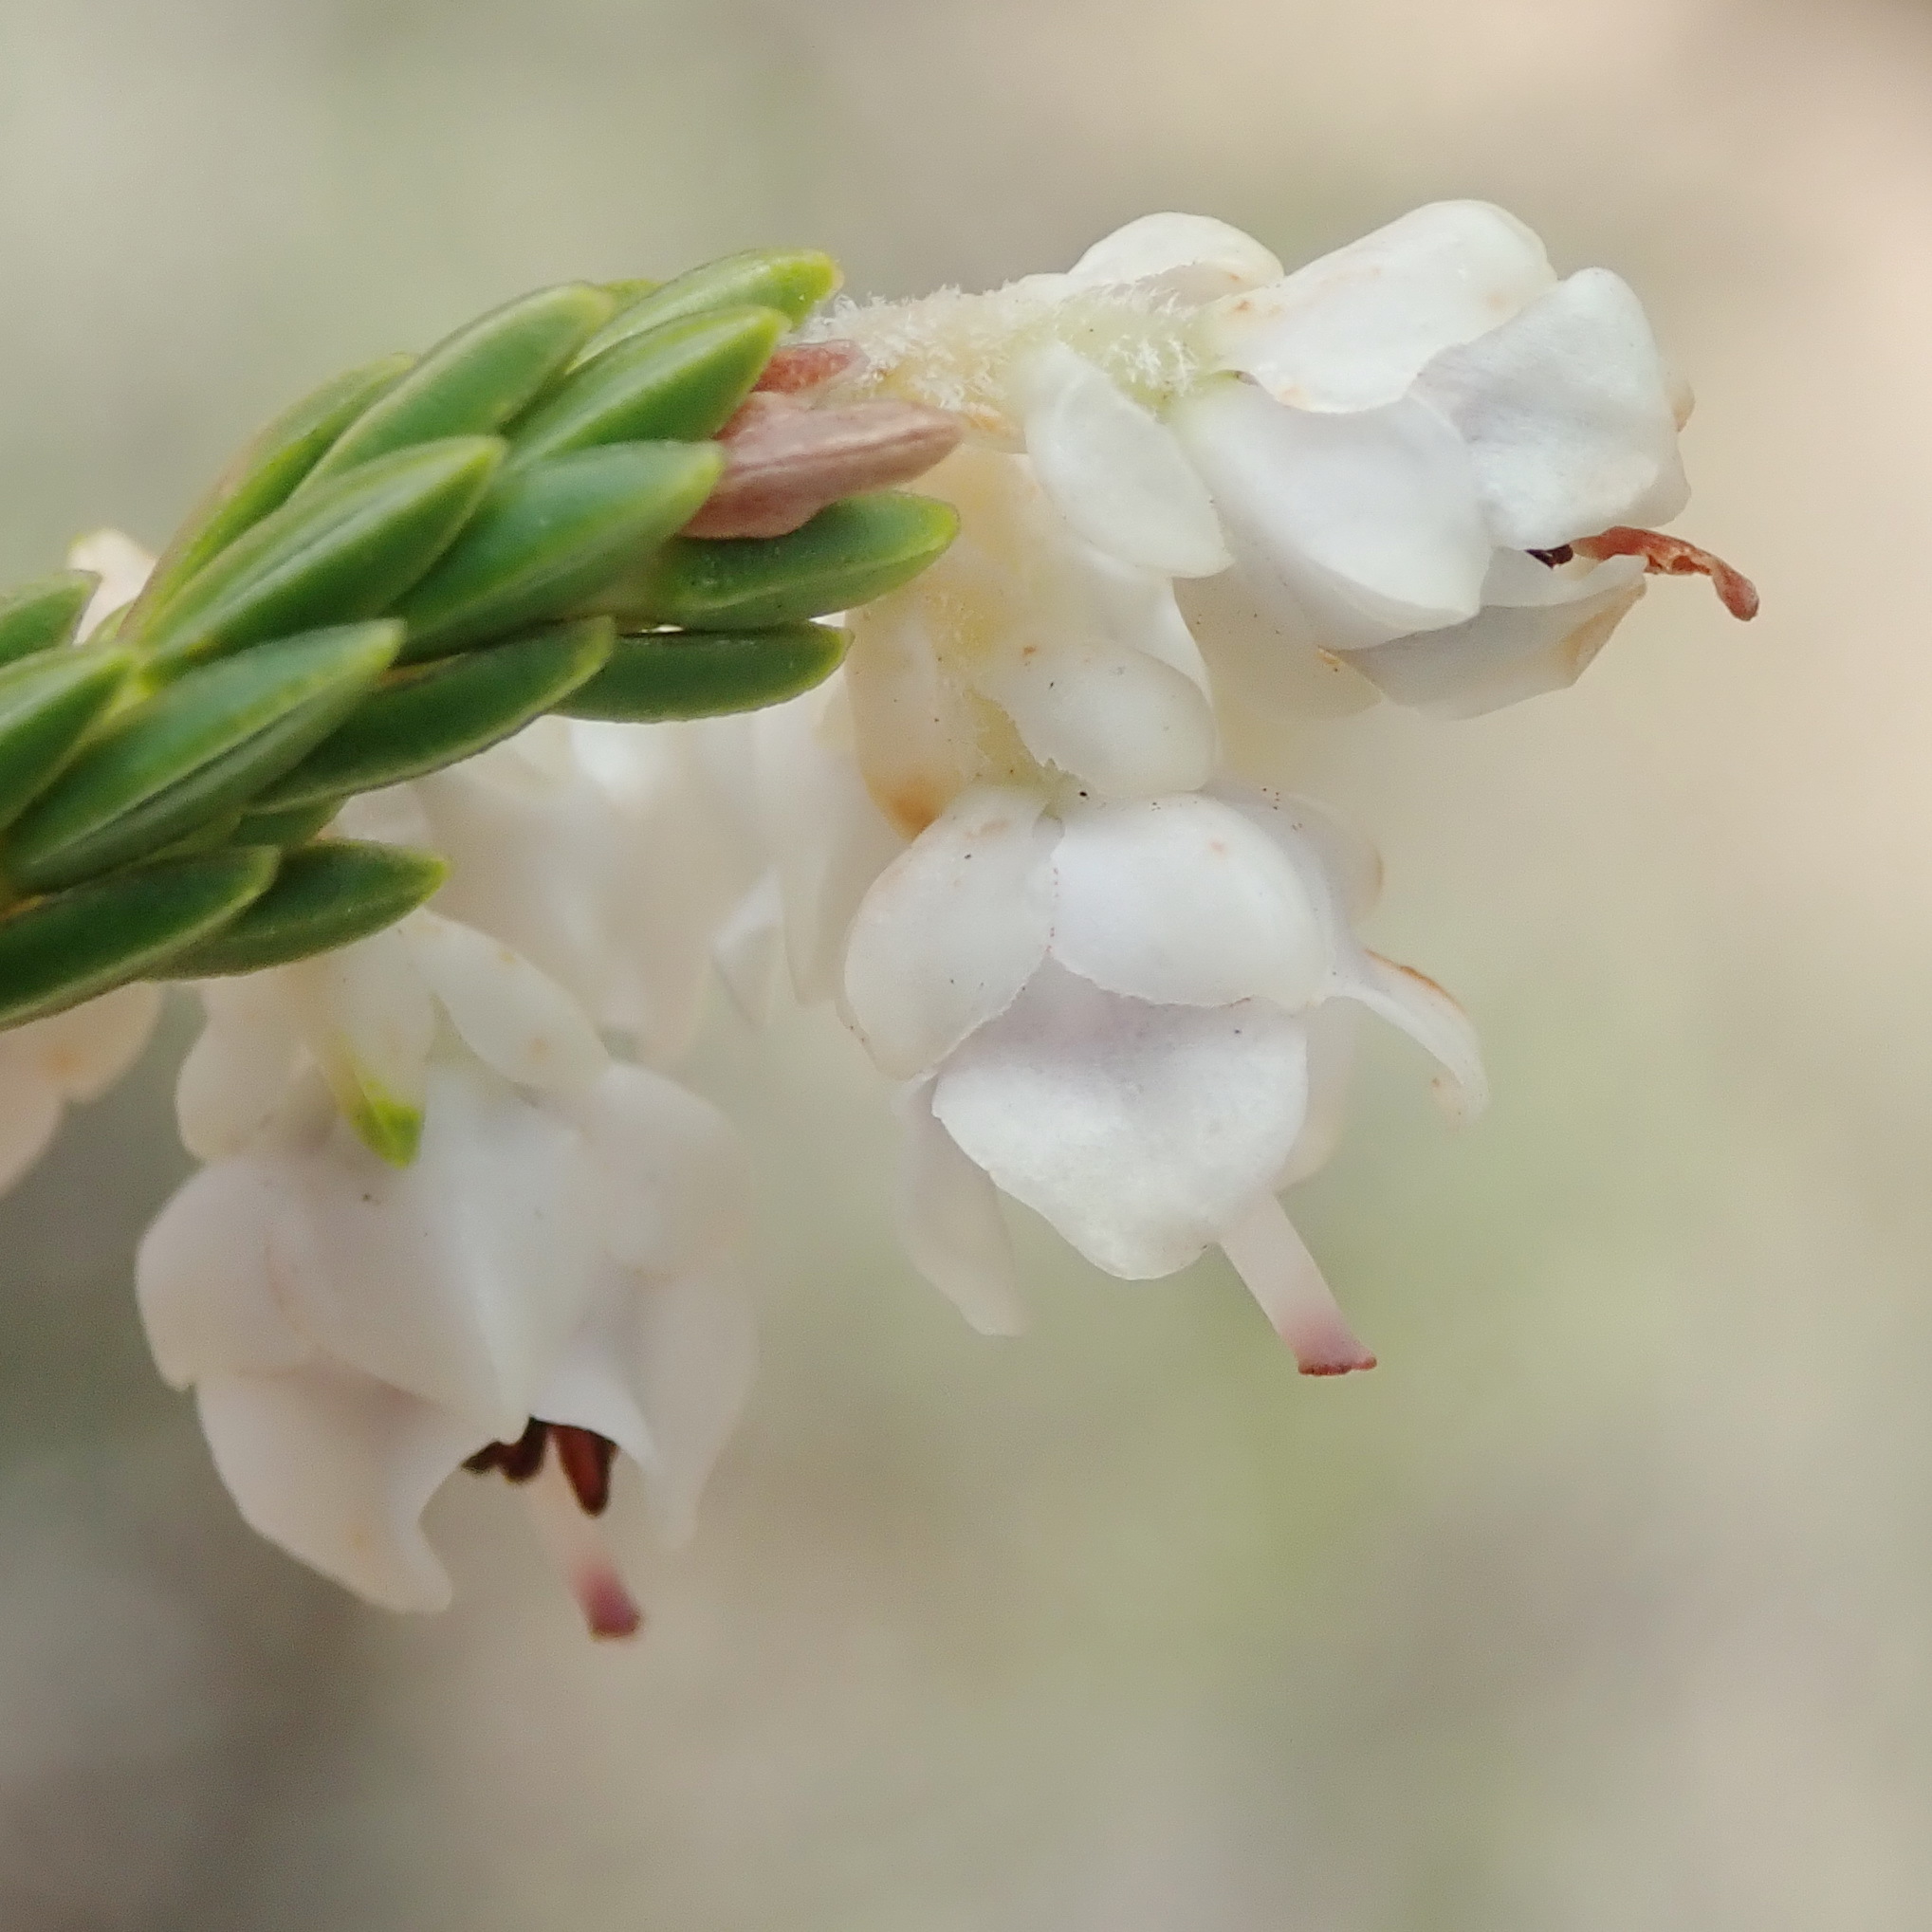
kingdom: Plantae
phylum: Tracheophyta
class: Magnoliopsida
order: Ericales
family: Ericaceae
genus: Erica
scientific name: Erica pseudocalycina
